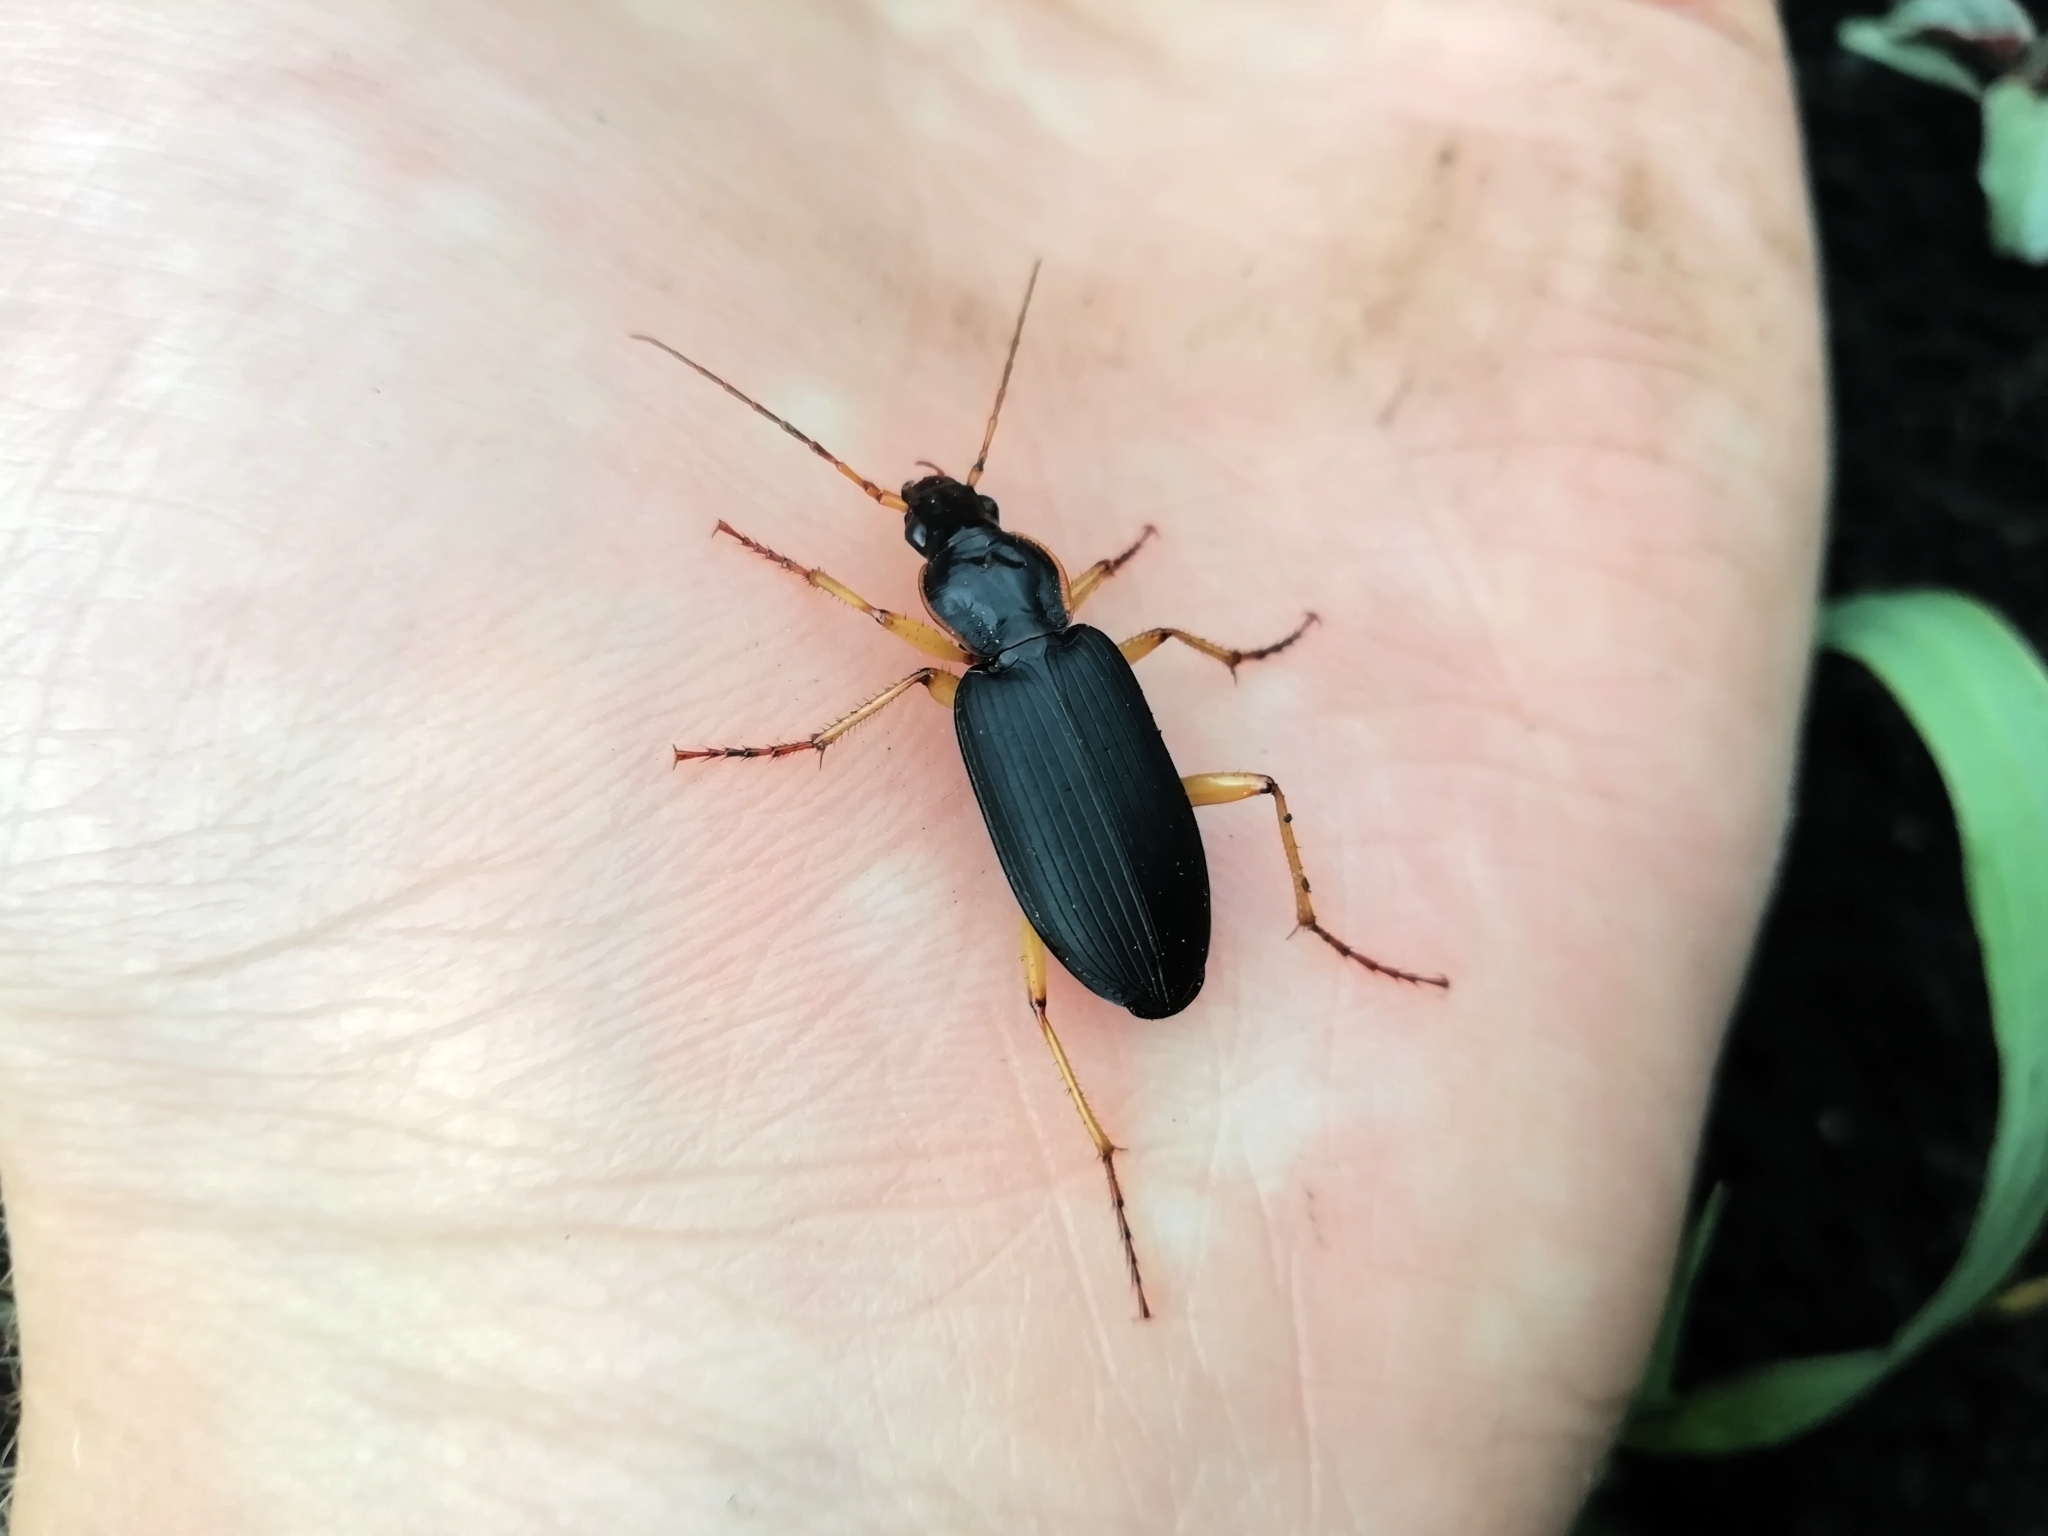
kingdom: Animalia
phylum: Arthropoda
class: Insecta
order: Coleoptera
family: Carabidae
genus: Dolichus
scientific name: Dolichus halensis
